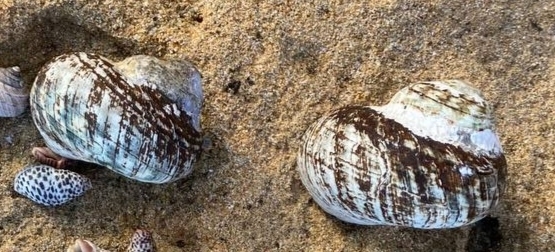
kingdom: Animalia
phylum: Mollusca
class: Gastropoda
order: Trochida
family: Turbinidae
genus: Lunella
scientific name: Lunella undulata
